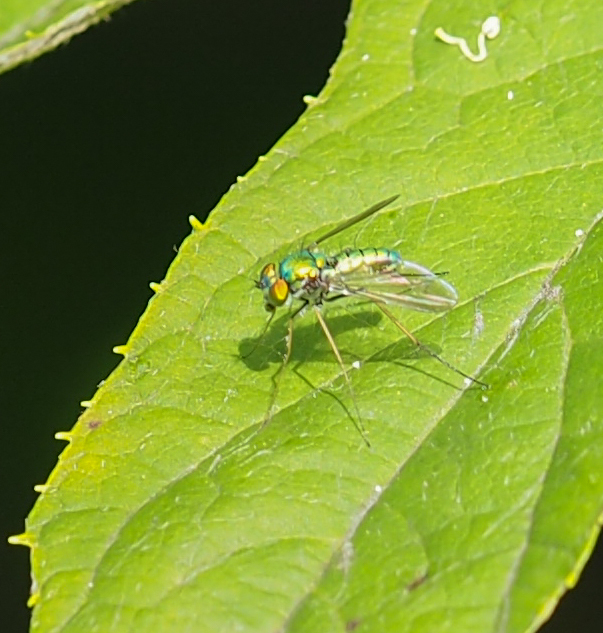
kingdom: Animalia
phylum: Arthropoda
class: Insecta
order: Diptera
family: Dolichopodidae
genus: Condylostylus
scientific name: Condylostylus comatus
